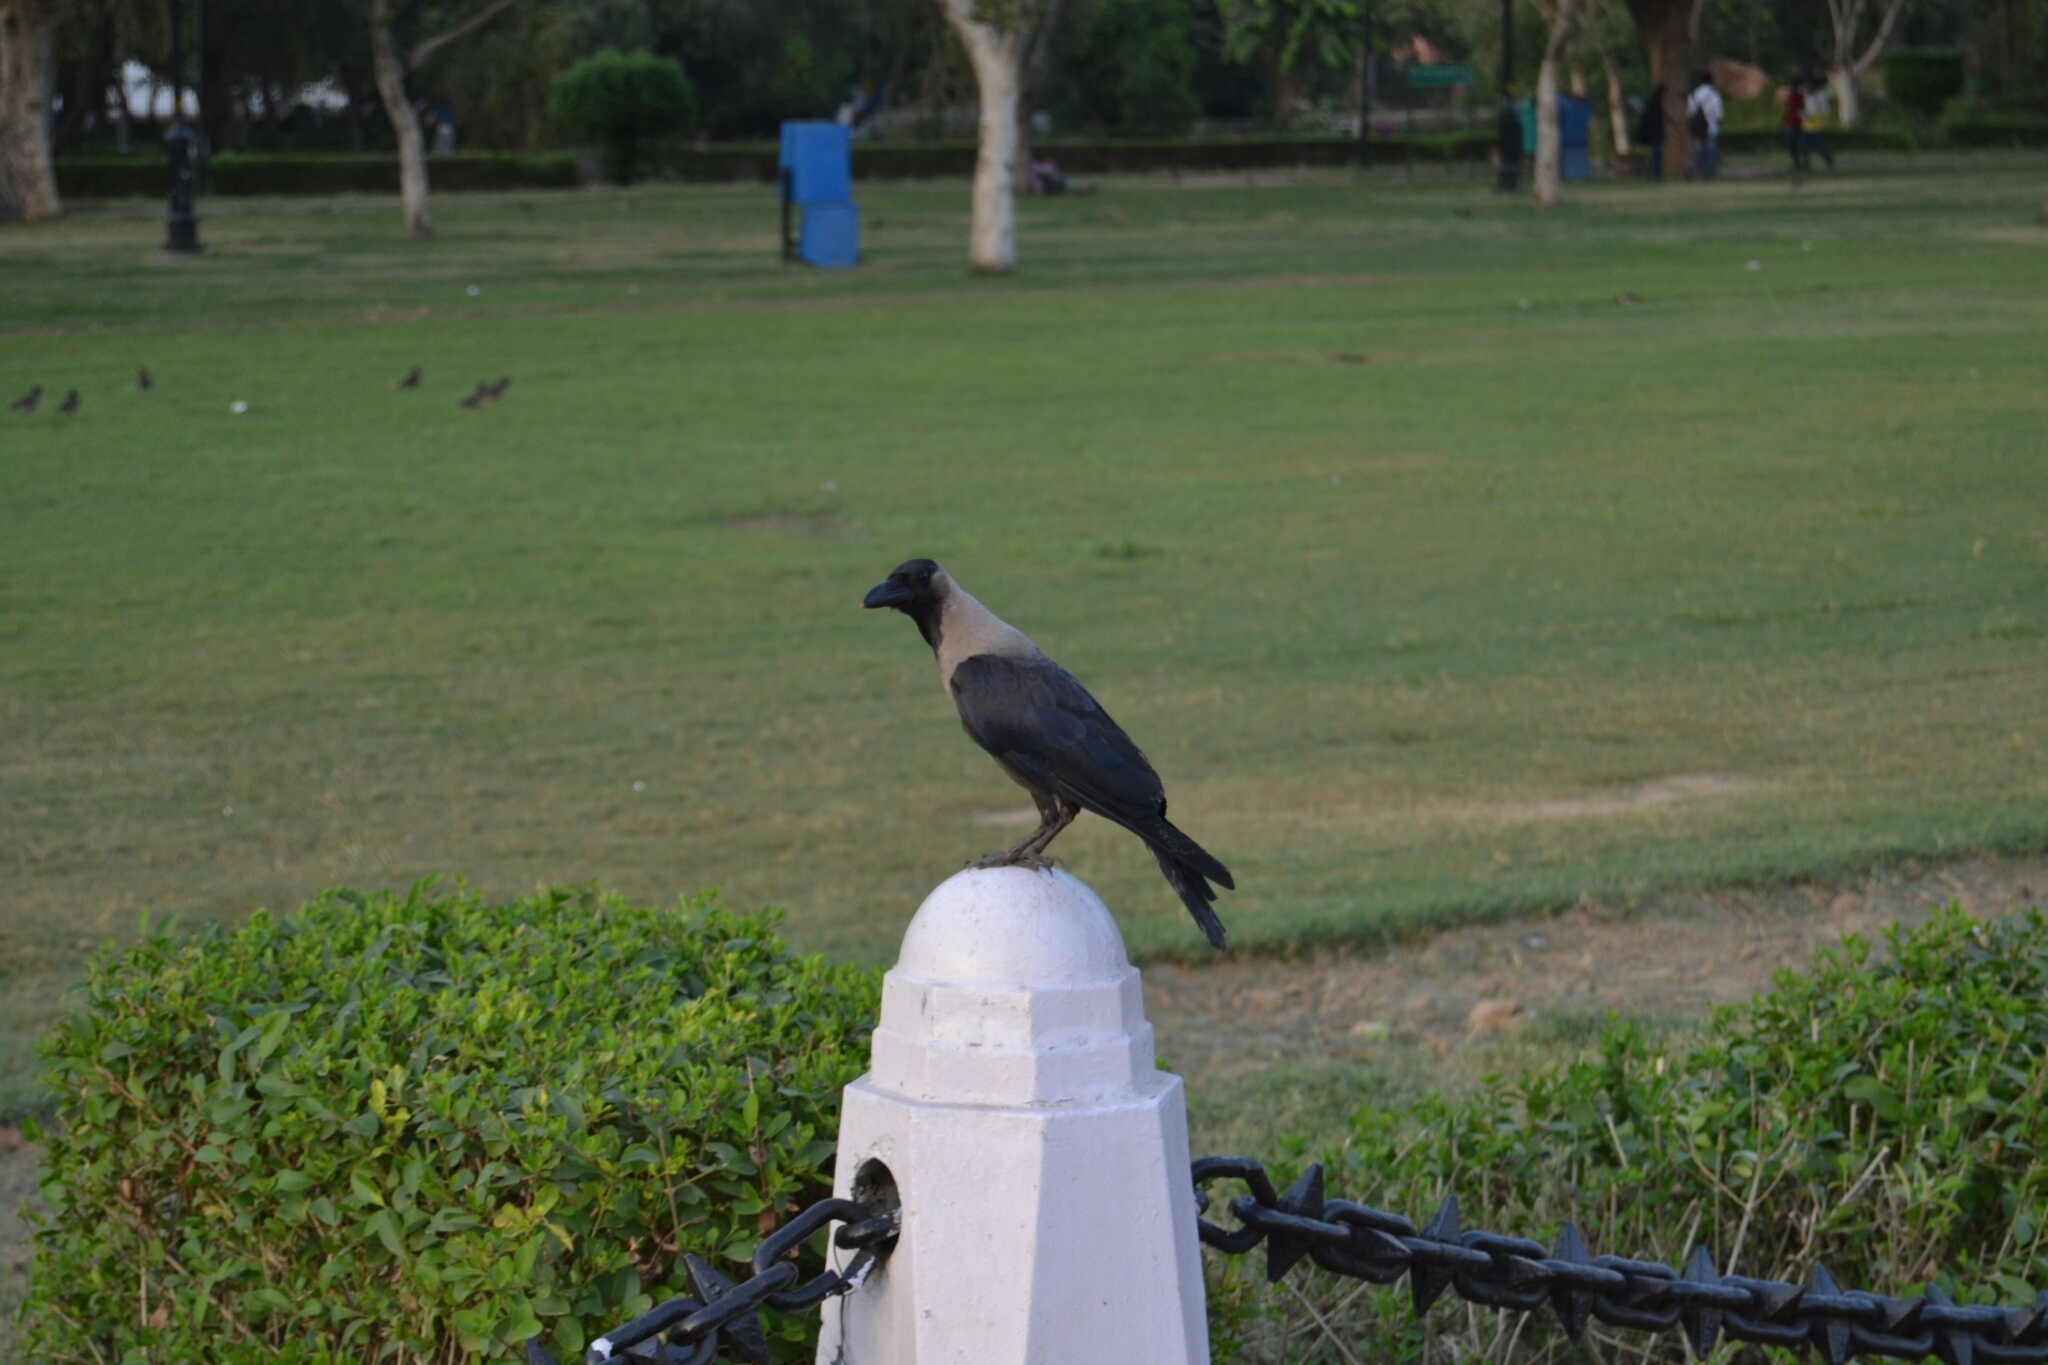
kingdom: Animalia
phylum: Chordata
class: Aves
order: Passeriformes
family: Corvidae
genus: Corvus
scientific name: Corvus splendens
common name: House crow
